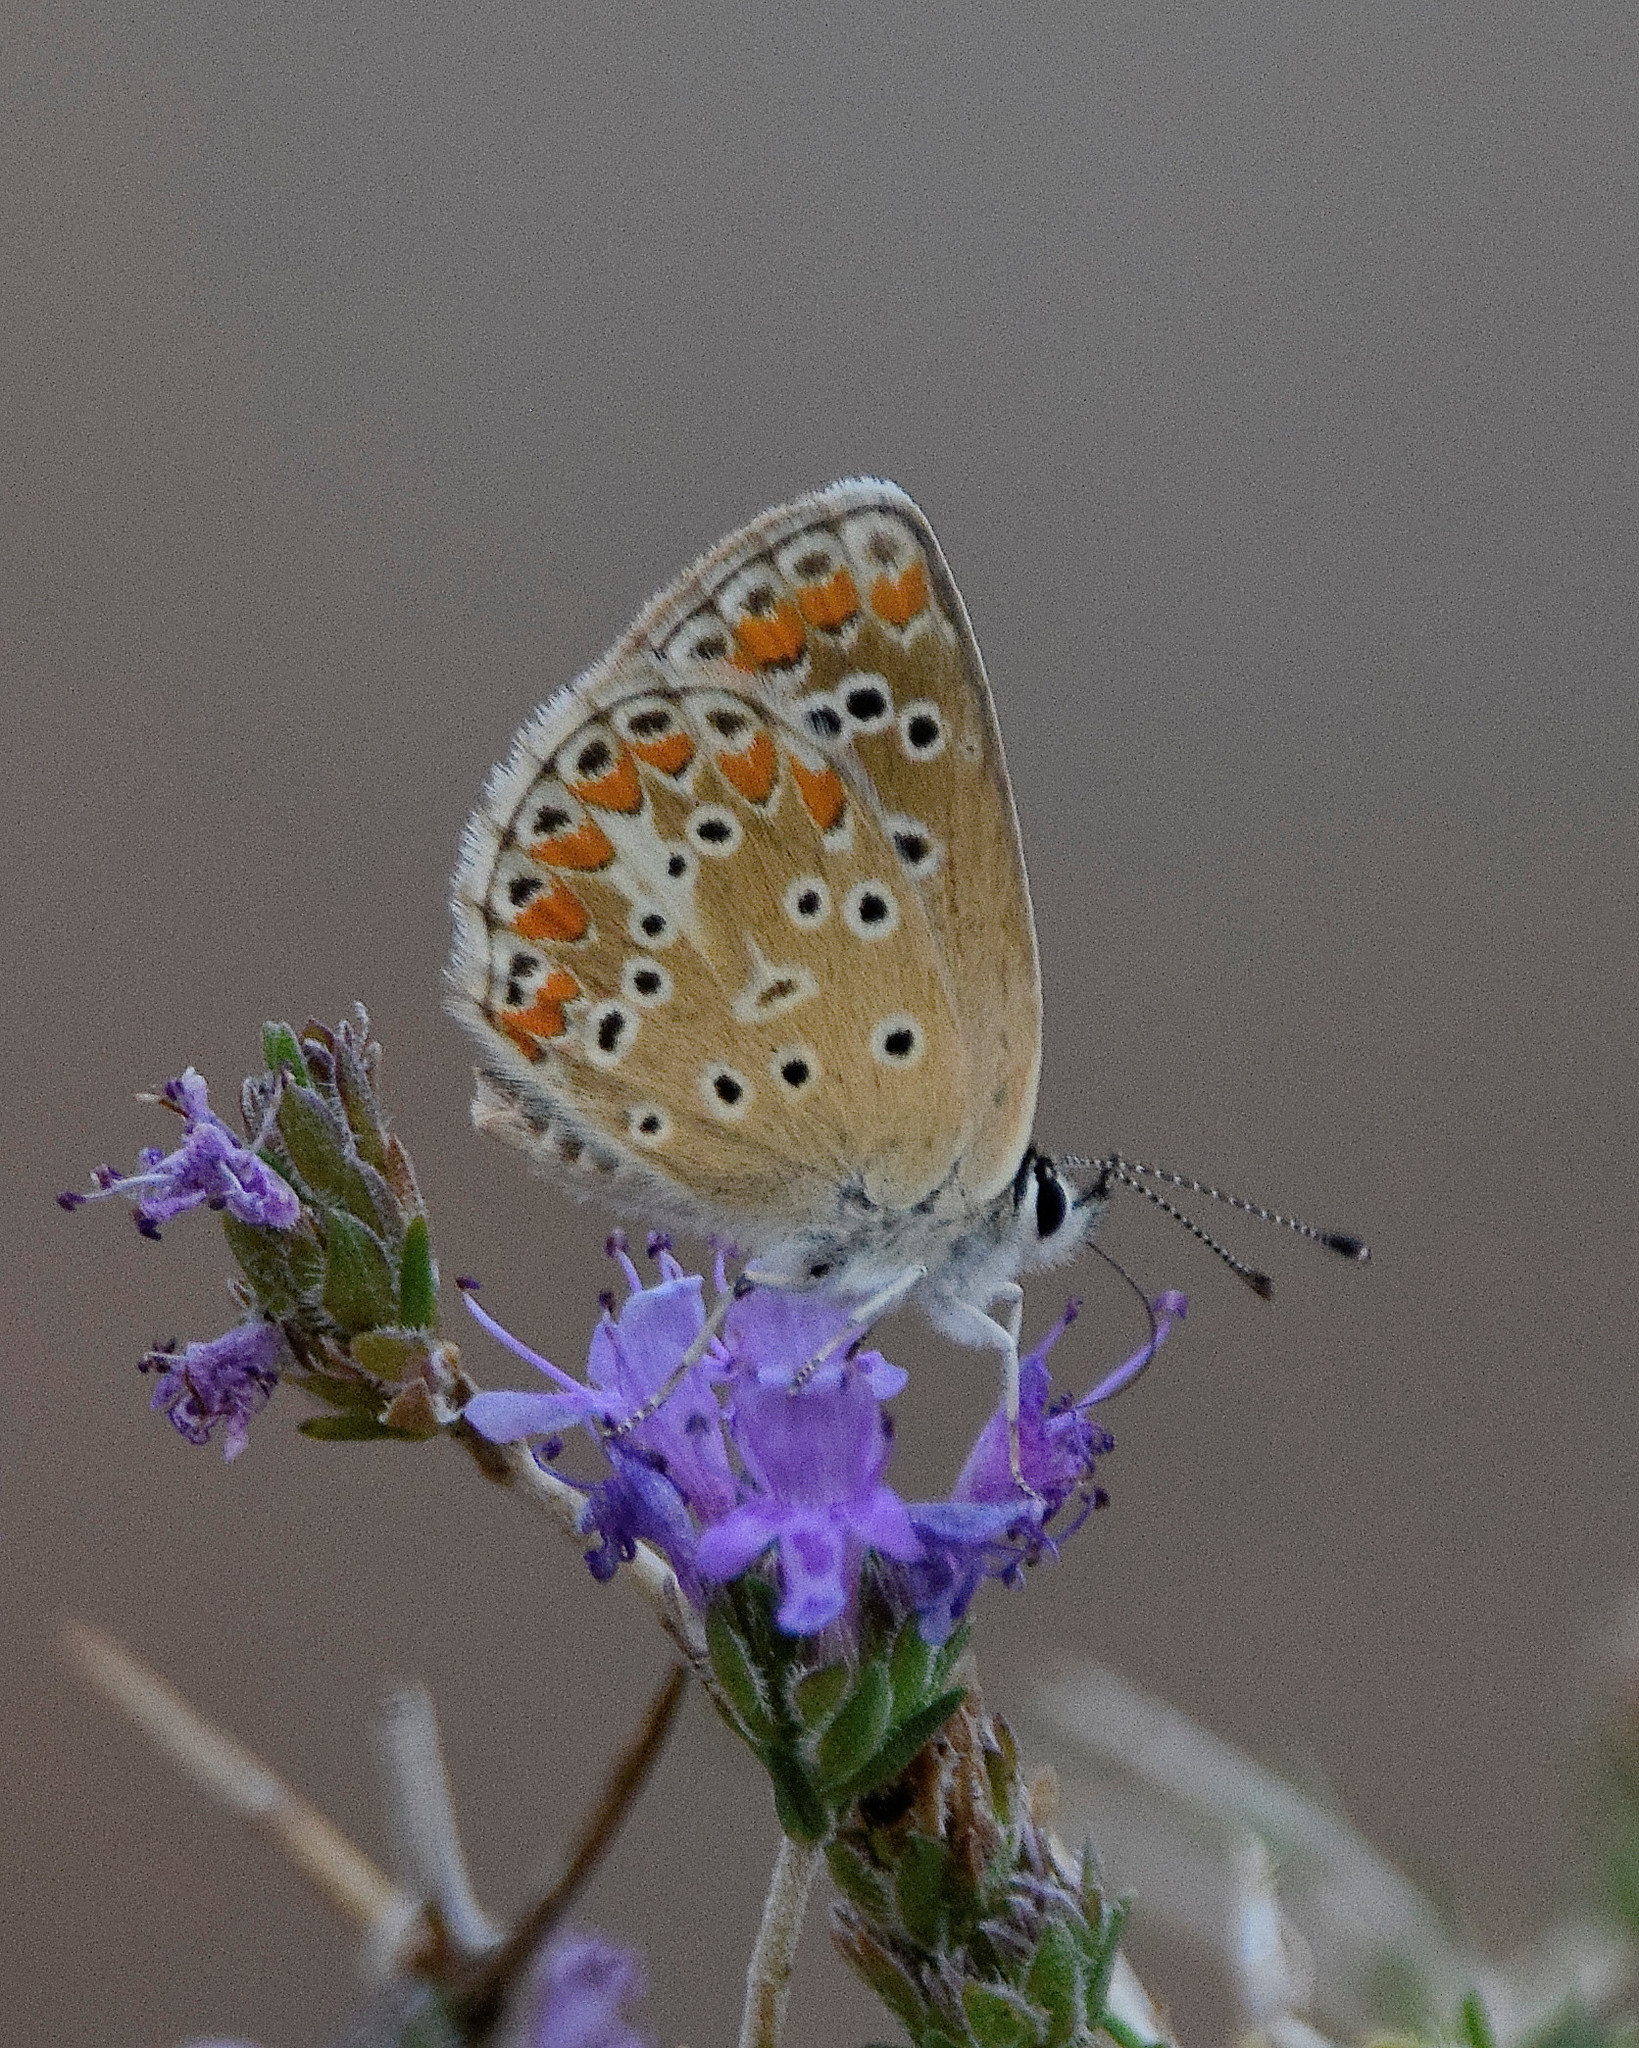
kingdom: Animalia
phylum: Arthropoda
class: Insecta
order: Lepidoptera
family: Lycaenidae
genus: Aricia
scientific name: Aricia agestis
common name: Brown argus
